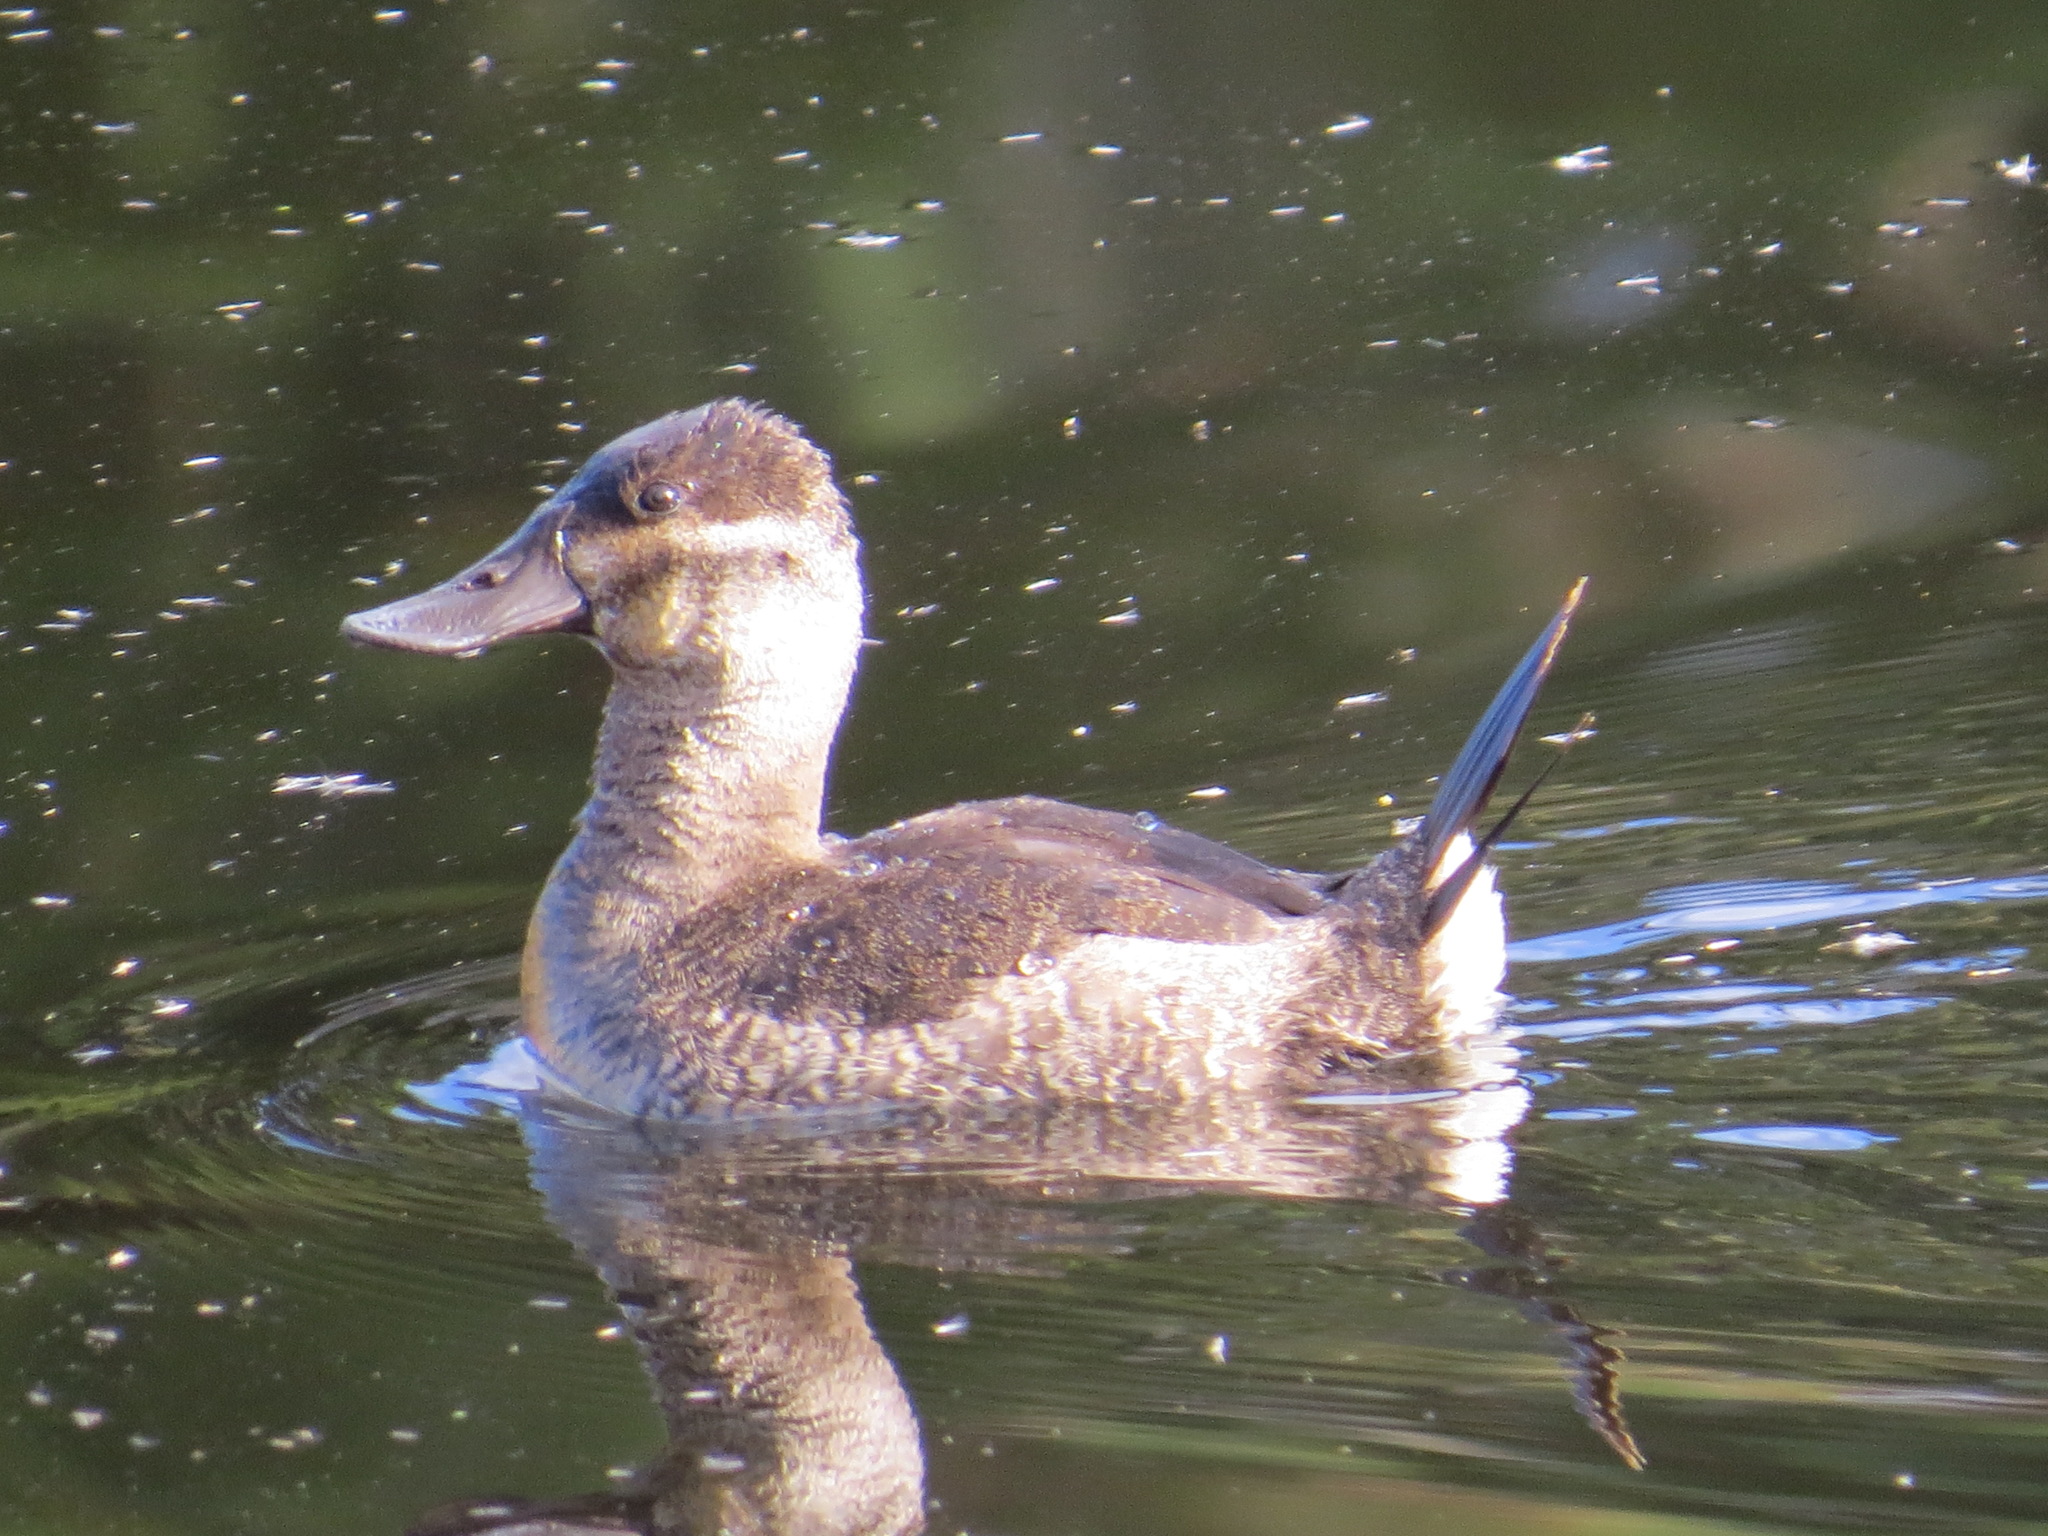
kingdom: Animalia
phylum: Chordata
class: Aves
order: Anseriformes
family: Anatidae
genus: Oxyura
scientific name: Oxyura jamaicensis
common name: Ruddy duck
